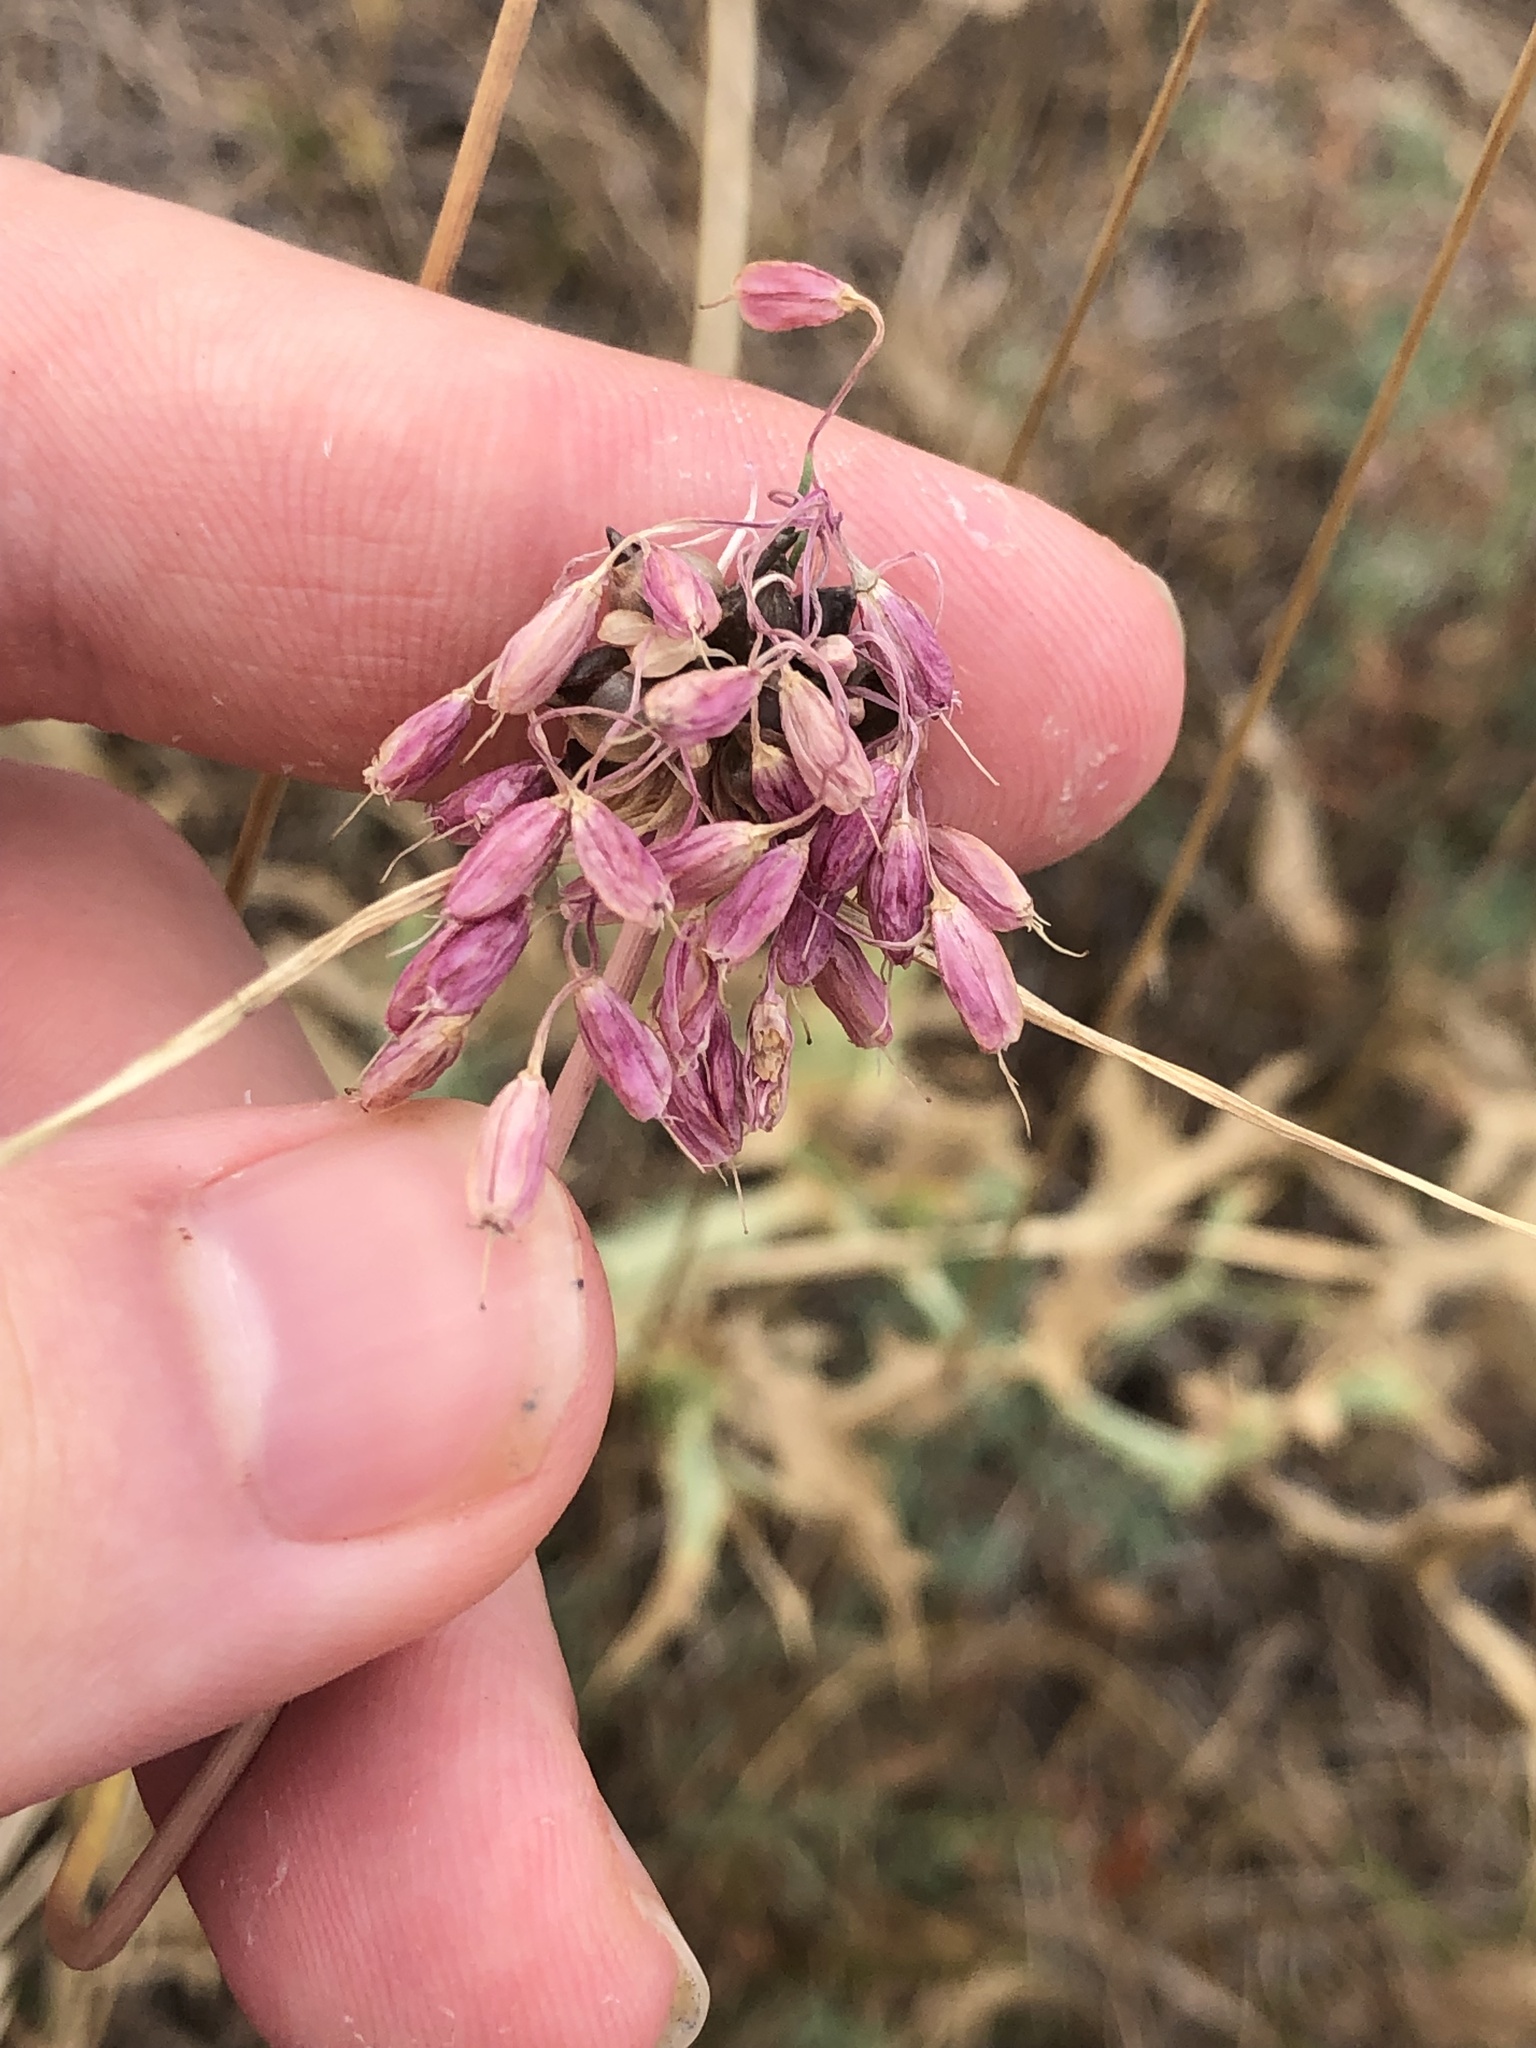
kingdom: Plantae
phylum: Tracheophyta
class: Liliopsida
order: Asparagales
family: Amaryllidaceae
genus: Allium
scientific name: Allium carinatum
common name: Keeled garlic
